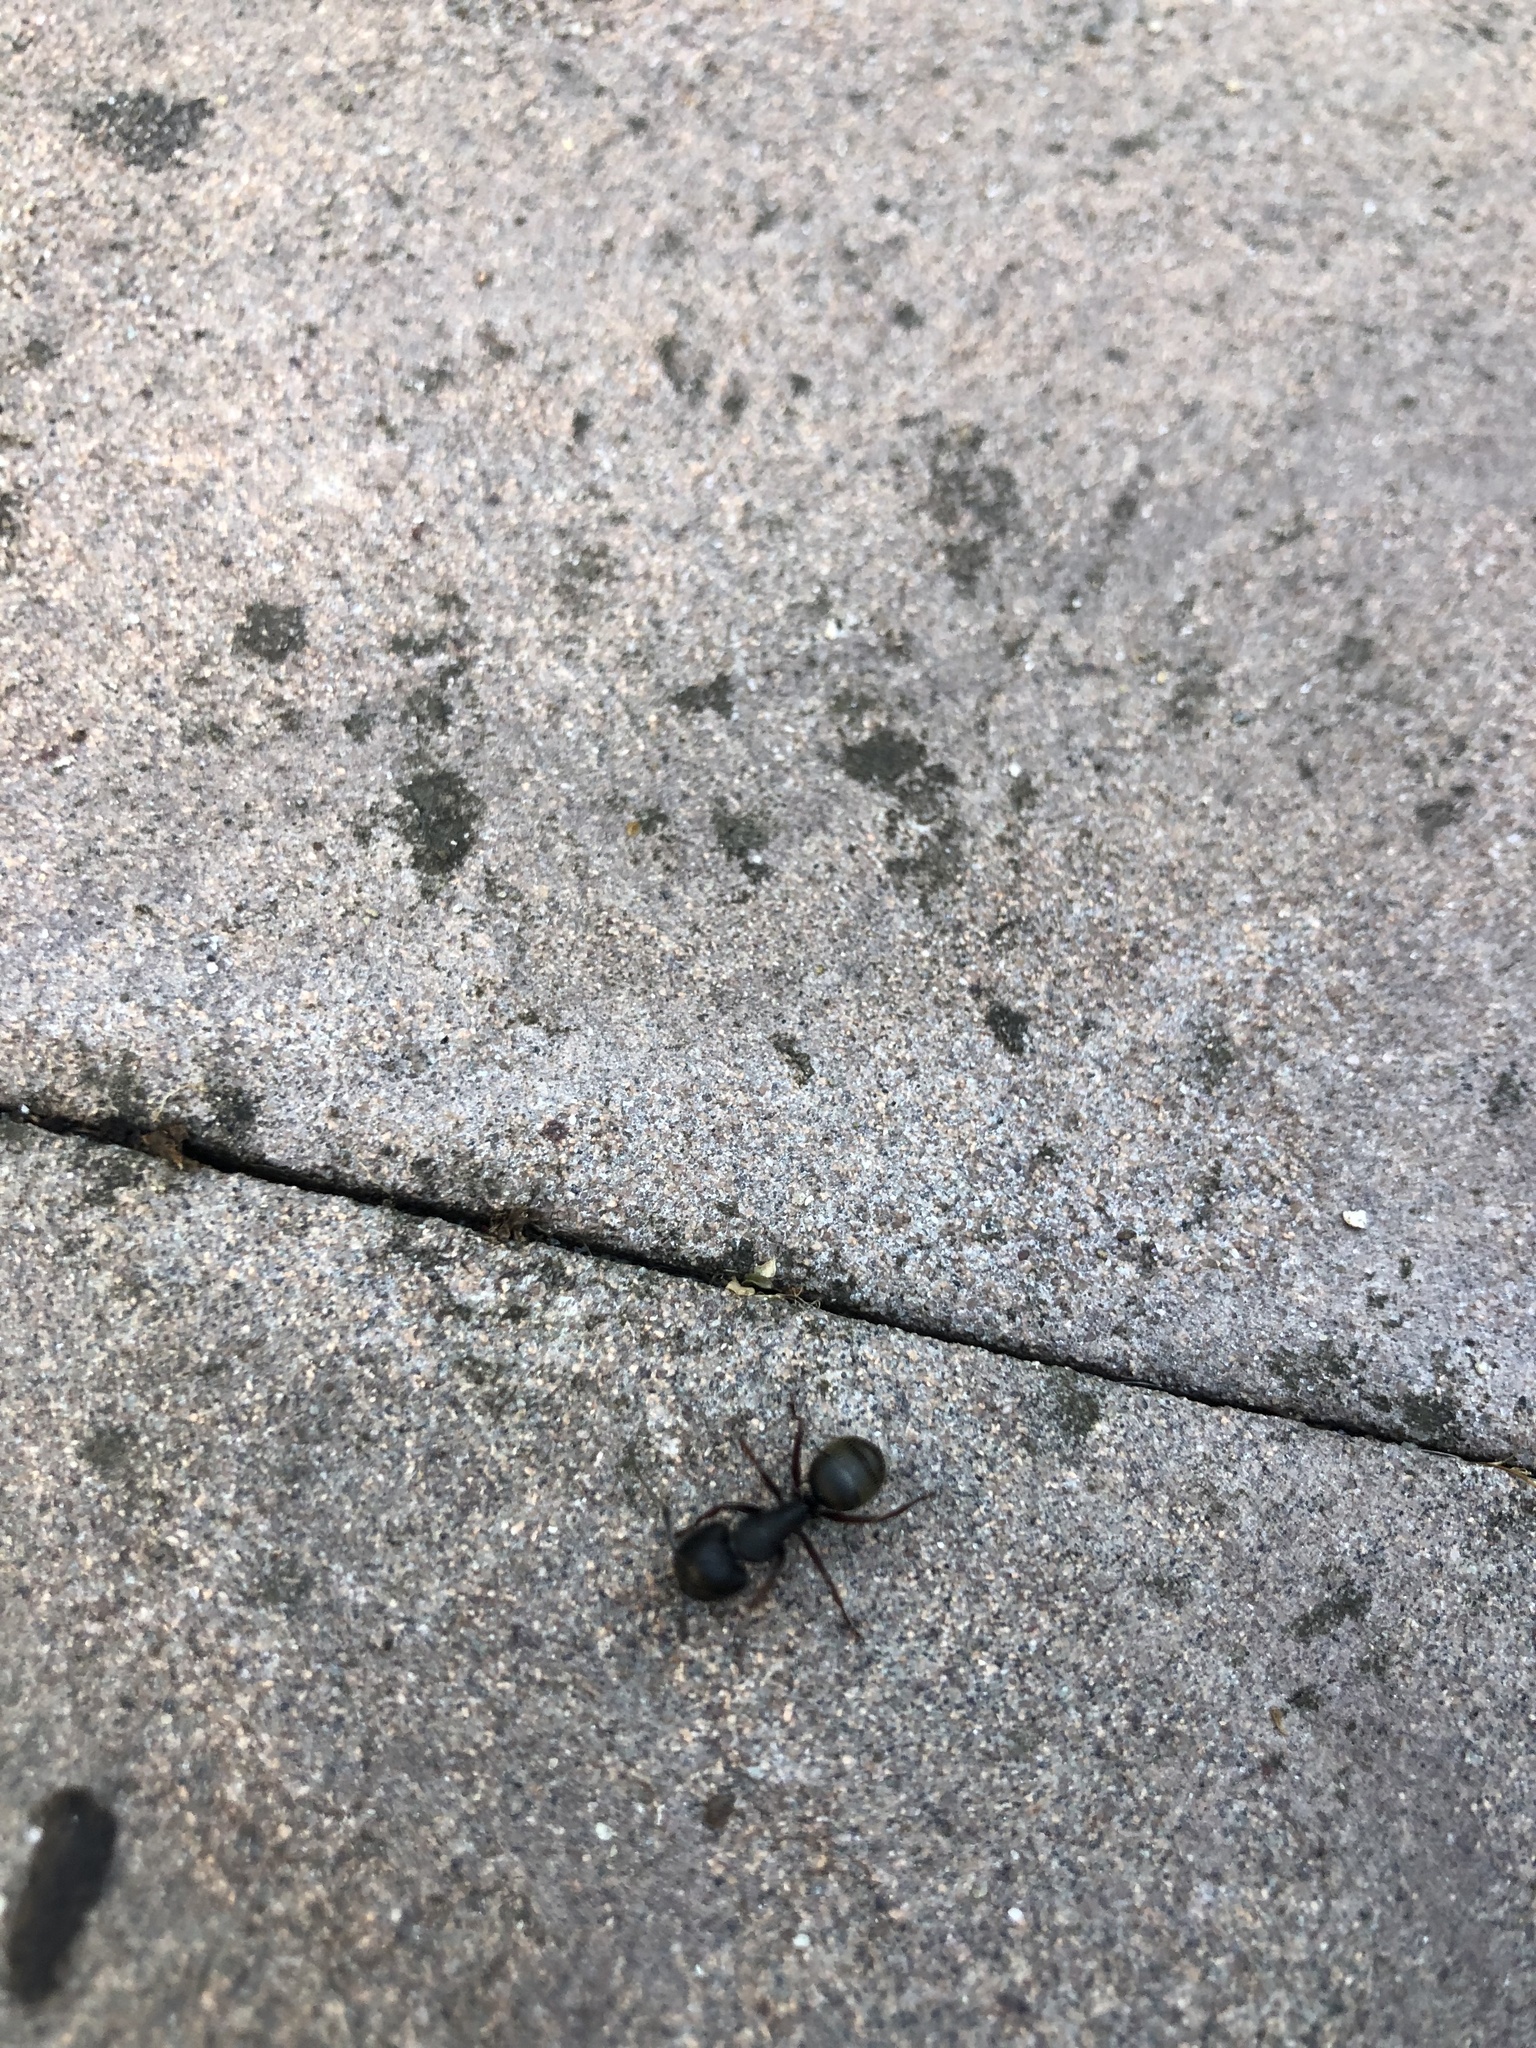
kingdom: Animalia
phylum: Arthropoda
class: Insecta
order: Hymenoptera
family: Formicidae
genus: Camponotus
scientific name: Camponotus modoc
